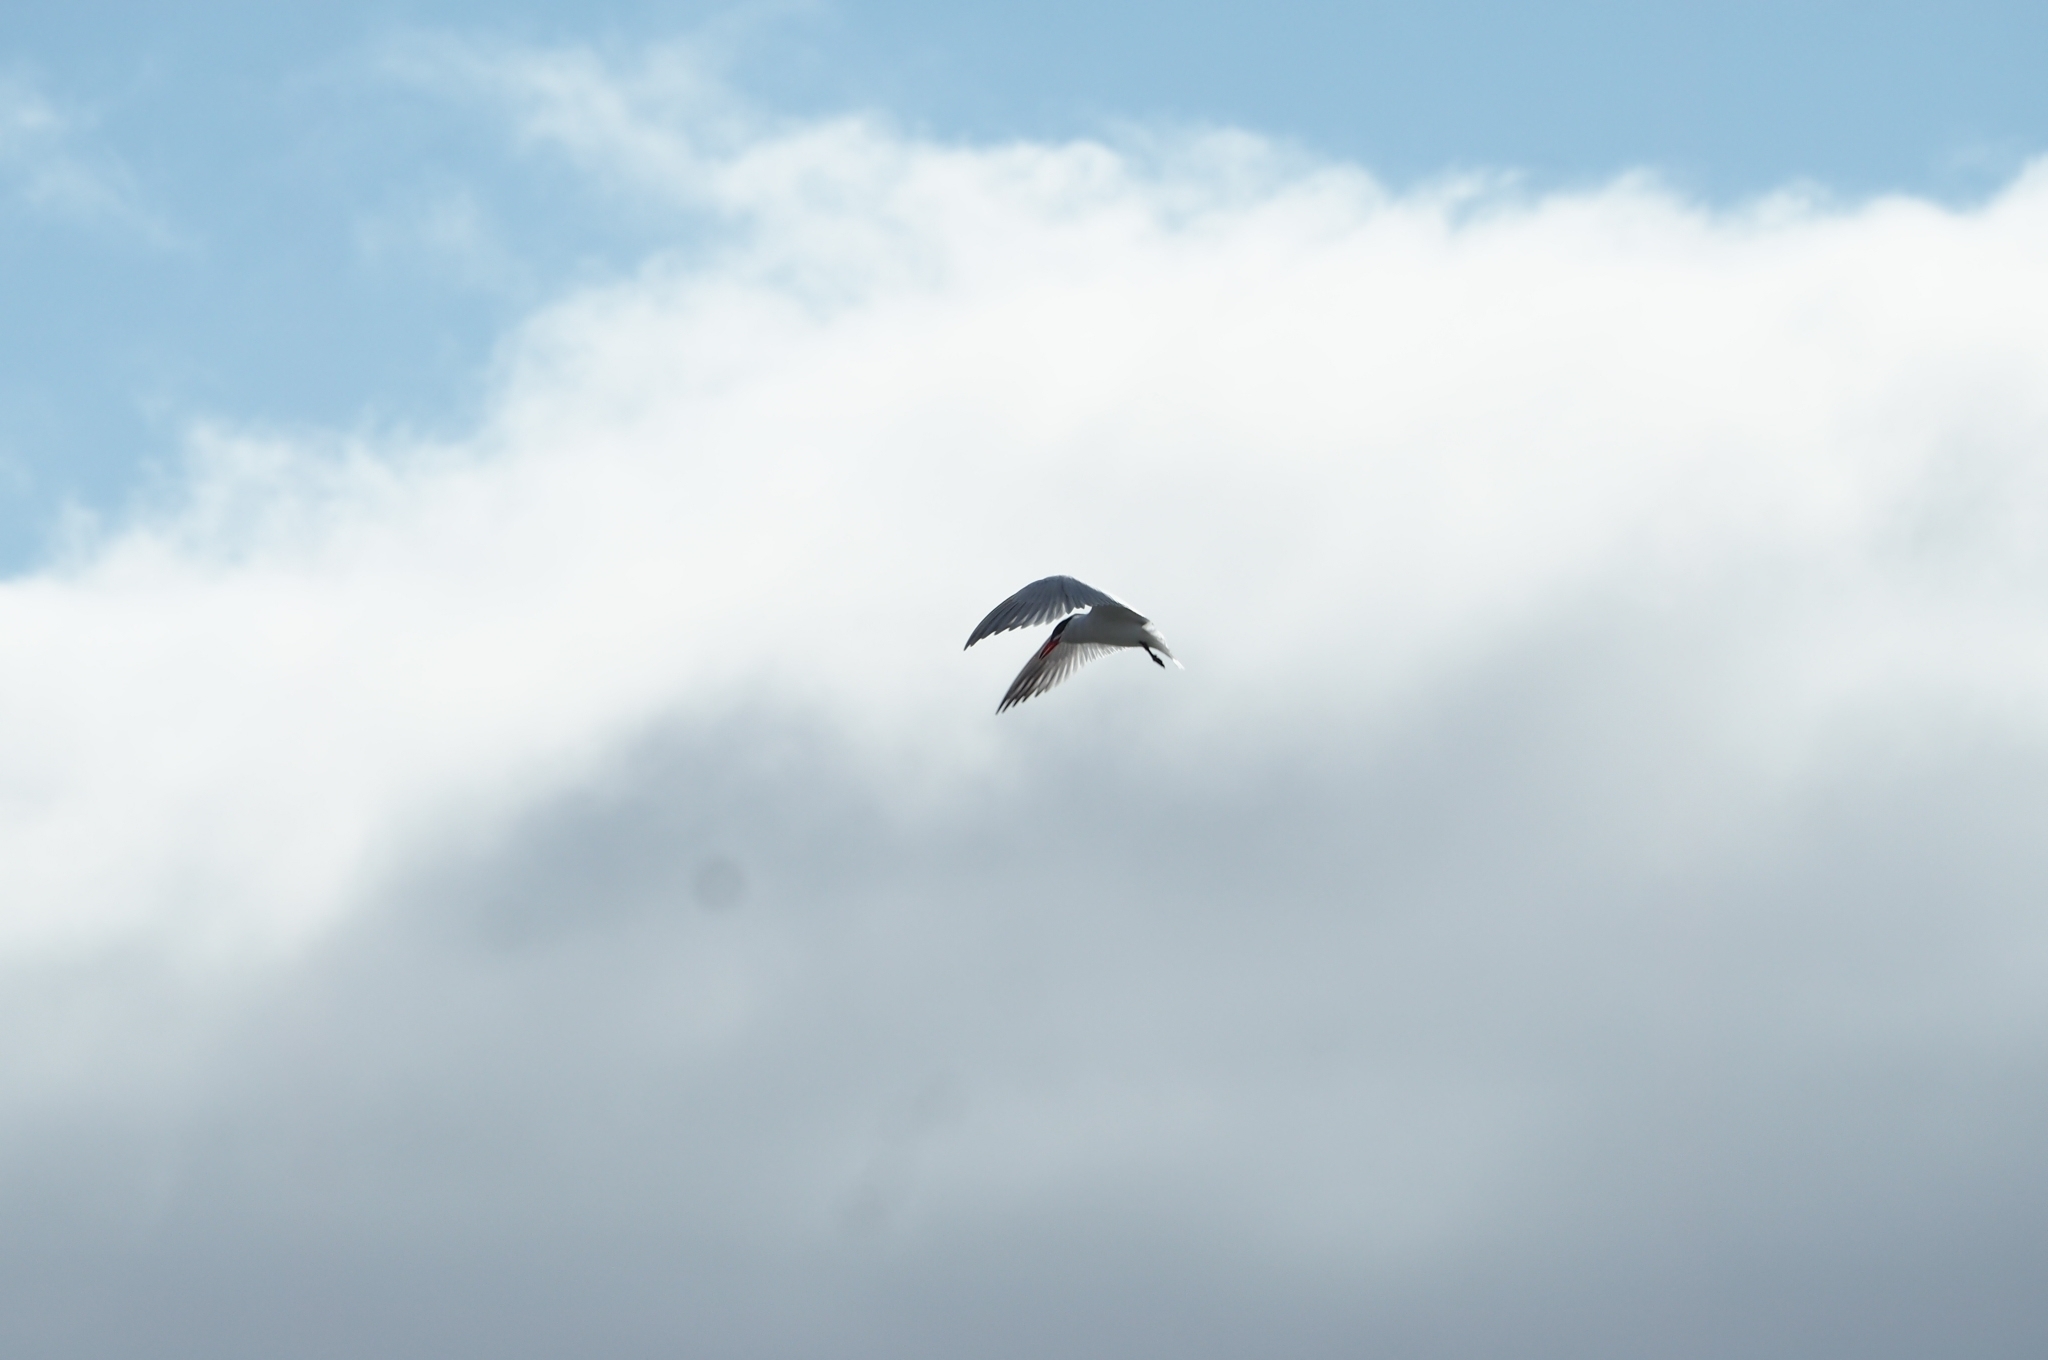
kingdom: Animalia
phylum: Chordata
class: Aves
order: Charadriiformes
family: Laridae
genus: Sterna
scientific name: Sterna paradisaea
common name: Arctic tern
